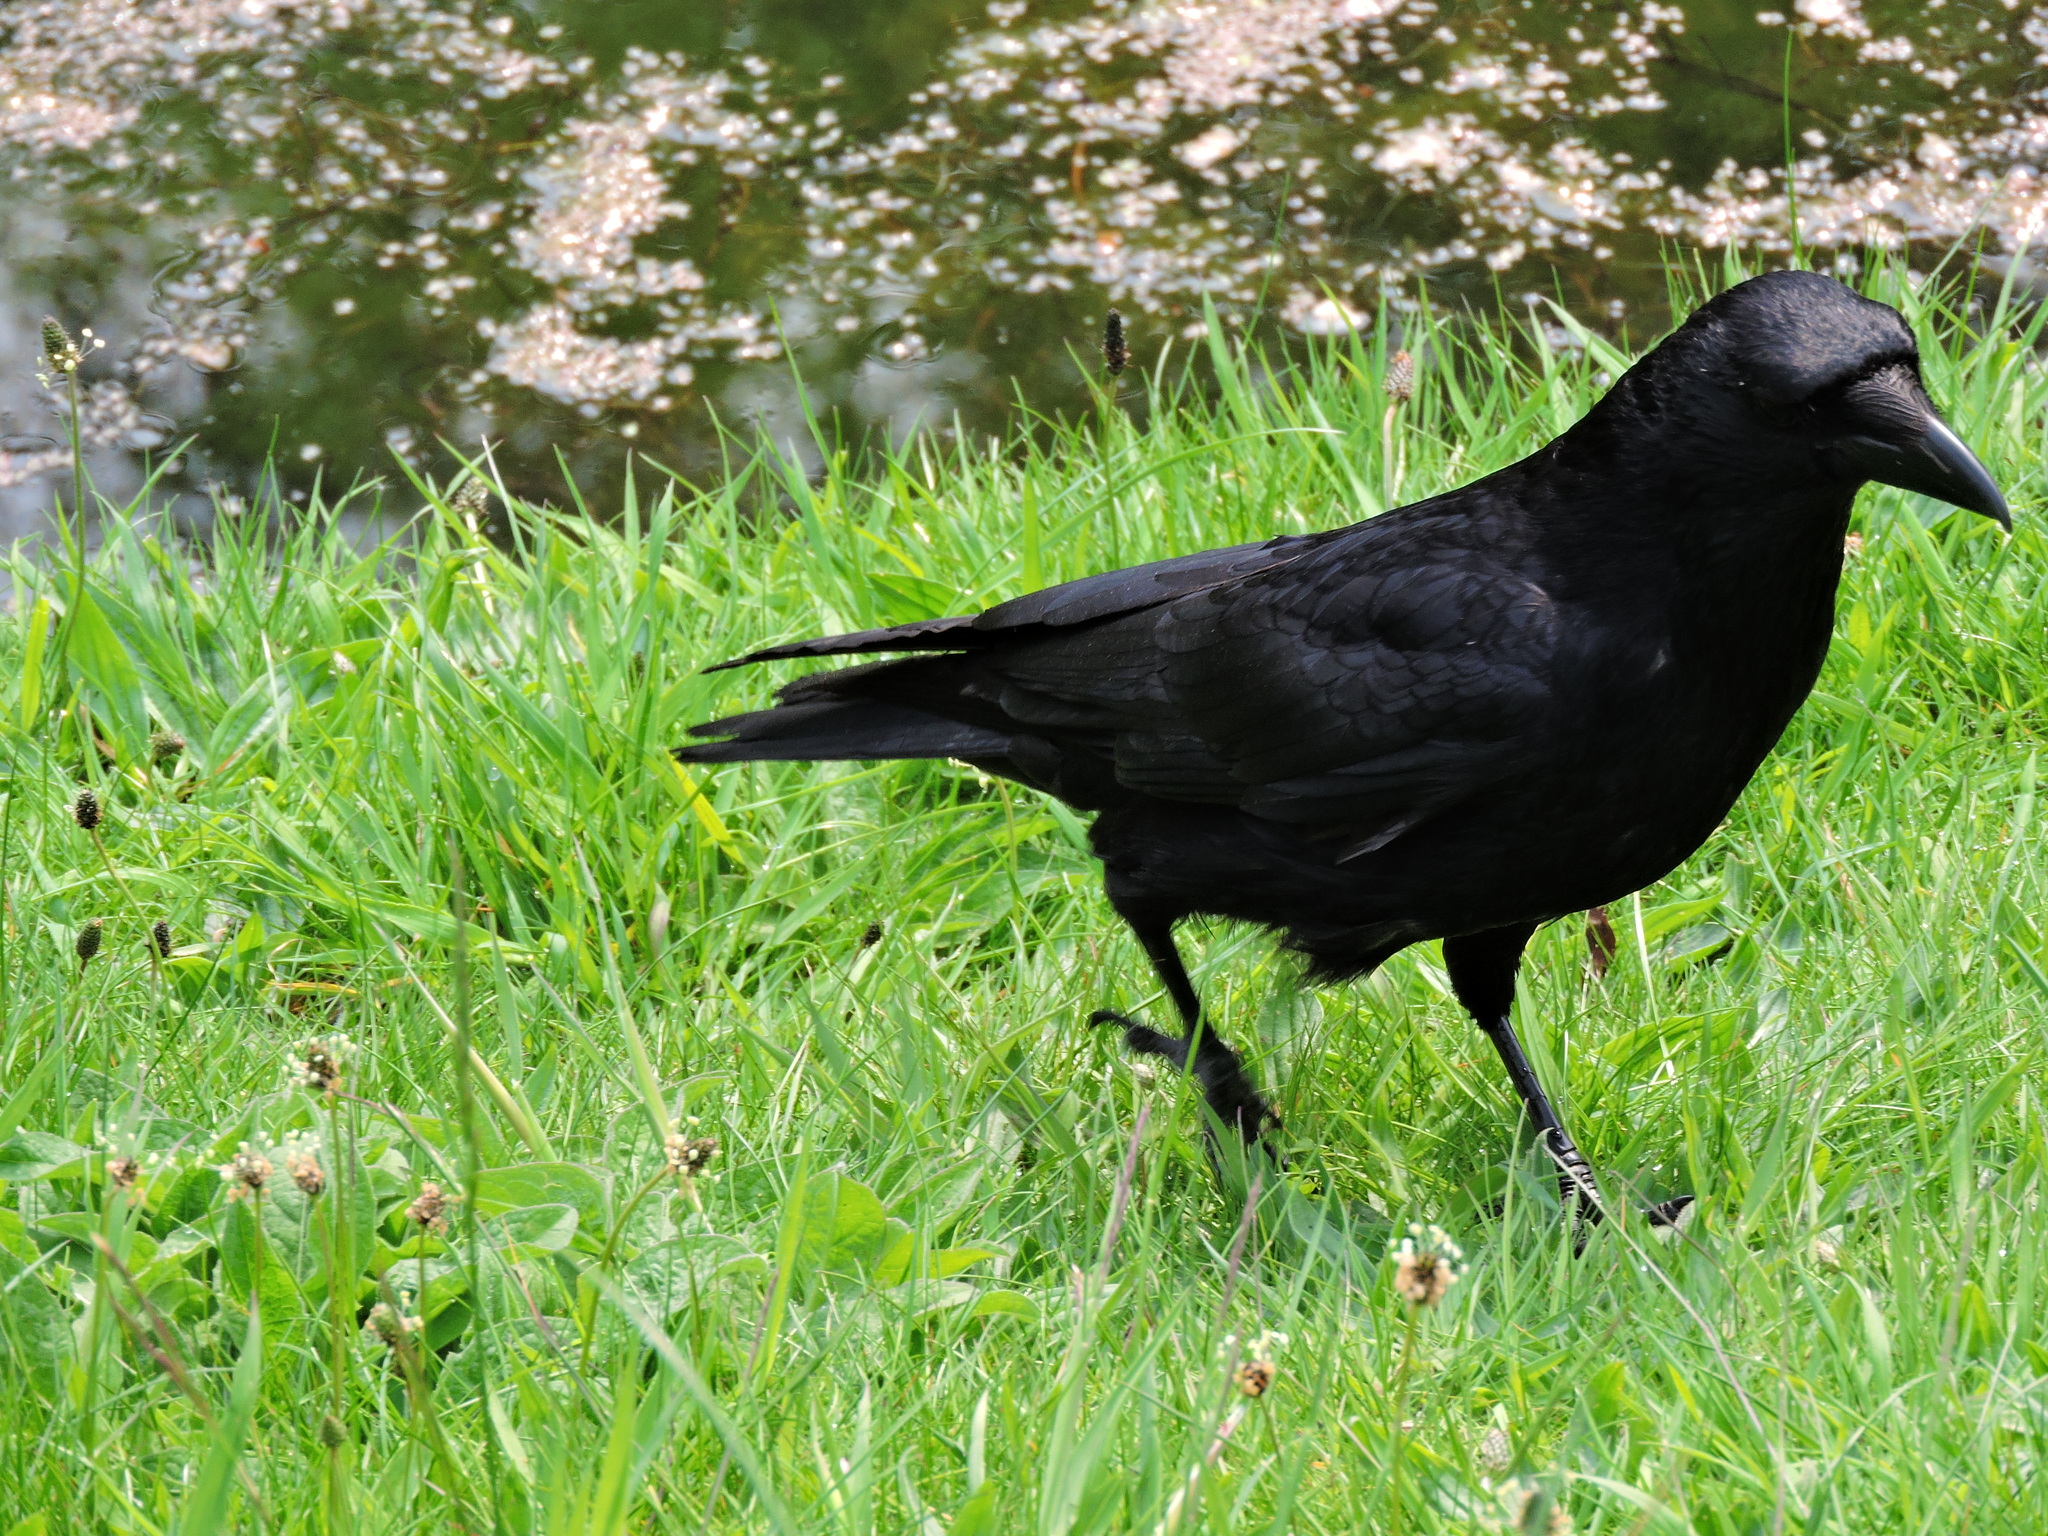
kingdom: Animalia
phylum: Chordata
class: Aves
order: Passeriformes
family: Corvidae
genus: Corvus
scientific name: Corvus corone
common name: Carrion crow
